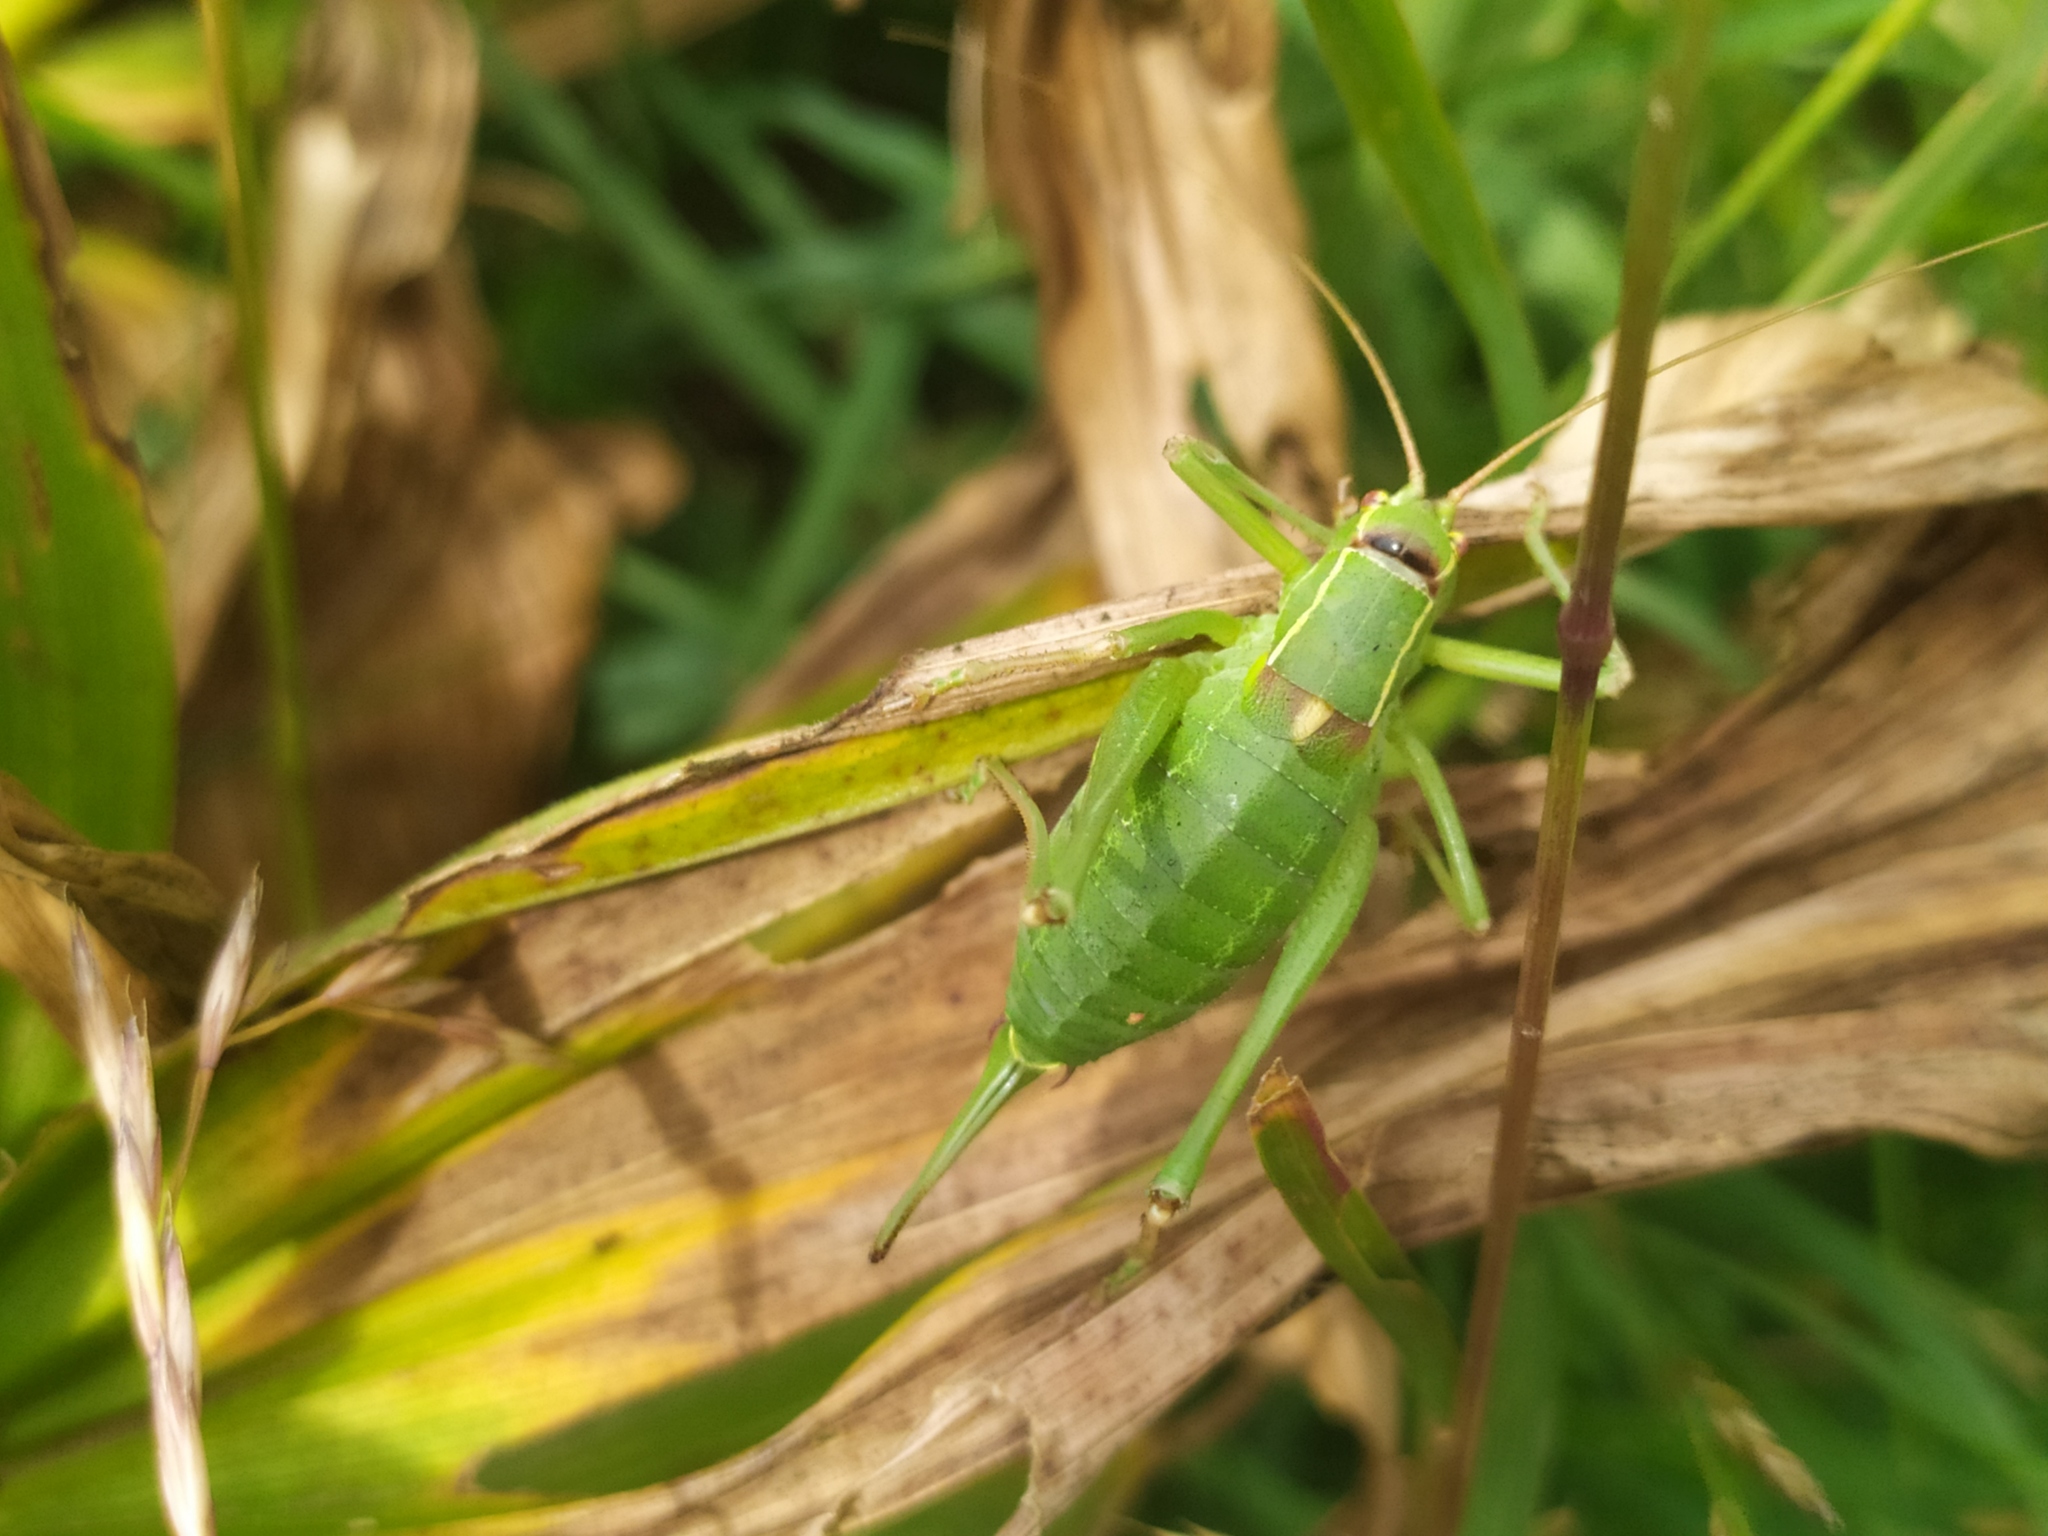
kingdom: Animalia
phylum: Arthropoda
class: Insecta
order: Orthoptera
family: Tettigoniidae
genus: Barbitistes
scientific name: Barbitistes yersini
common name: Balkan saw bush-cricket
